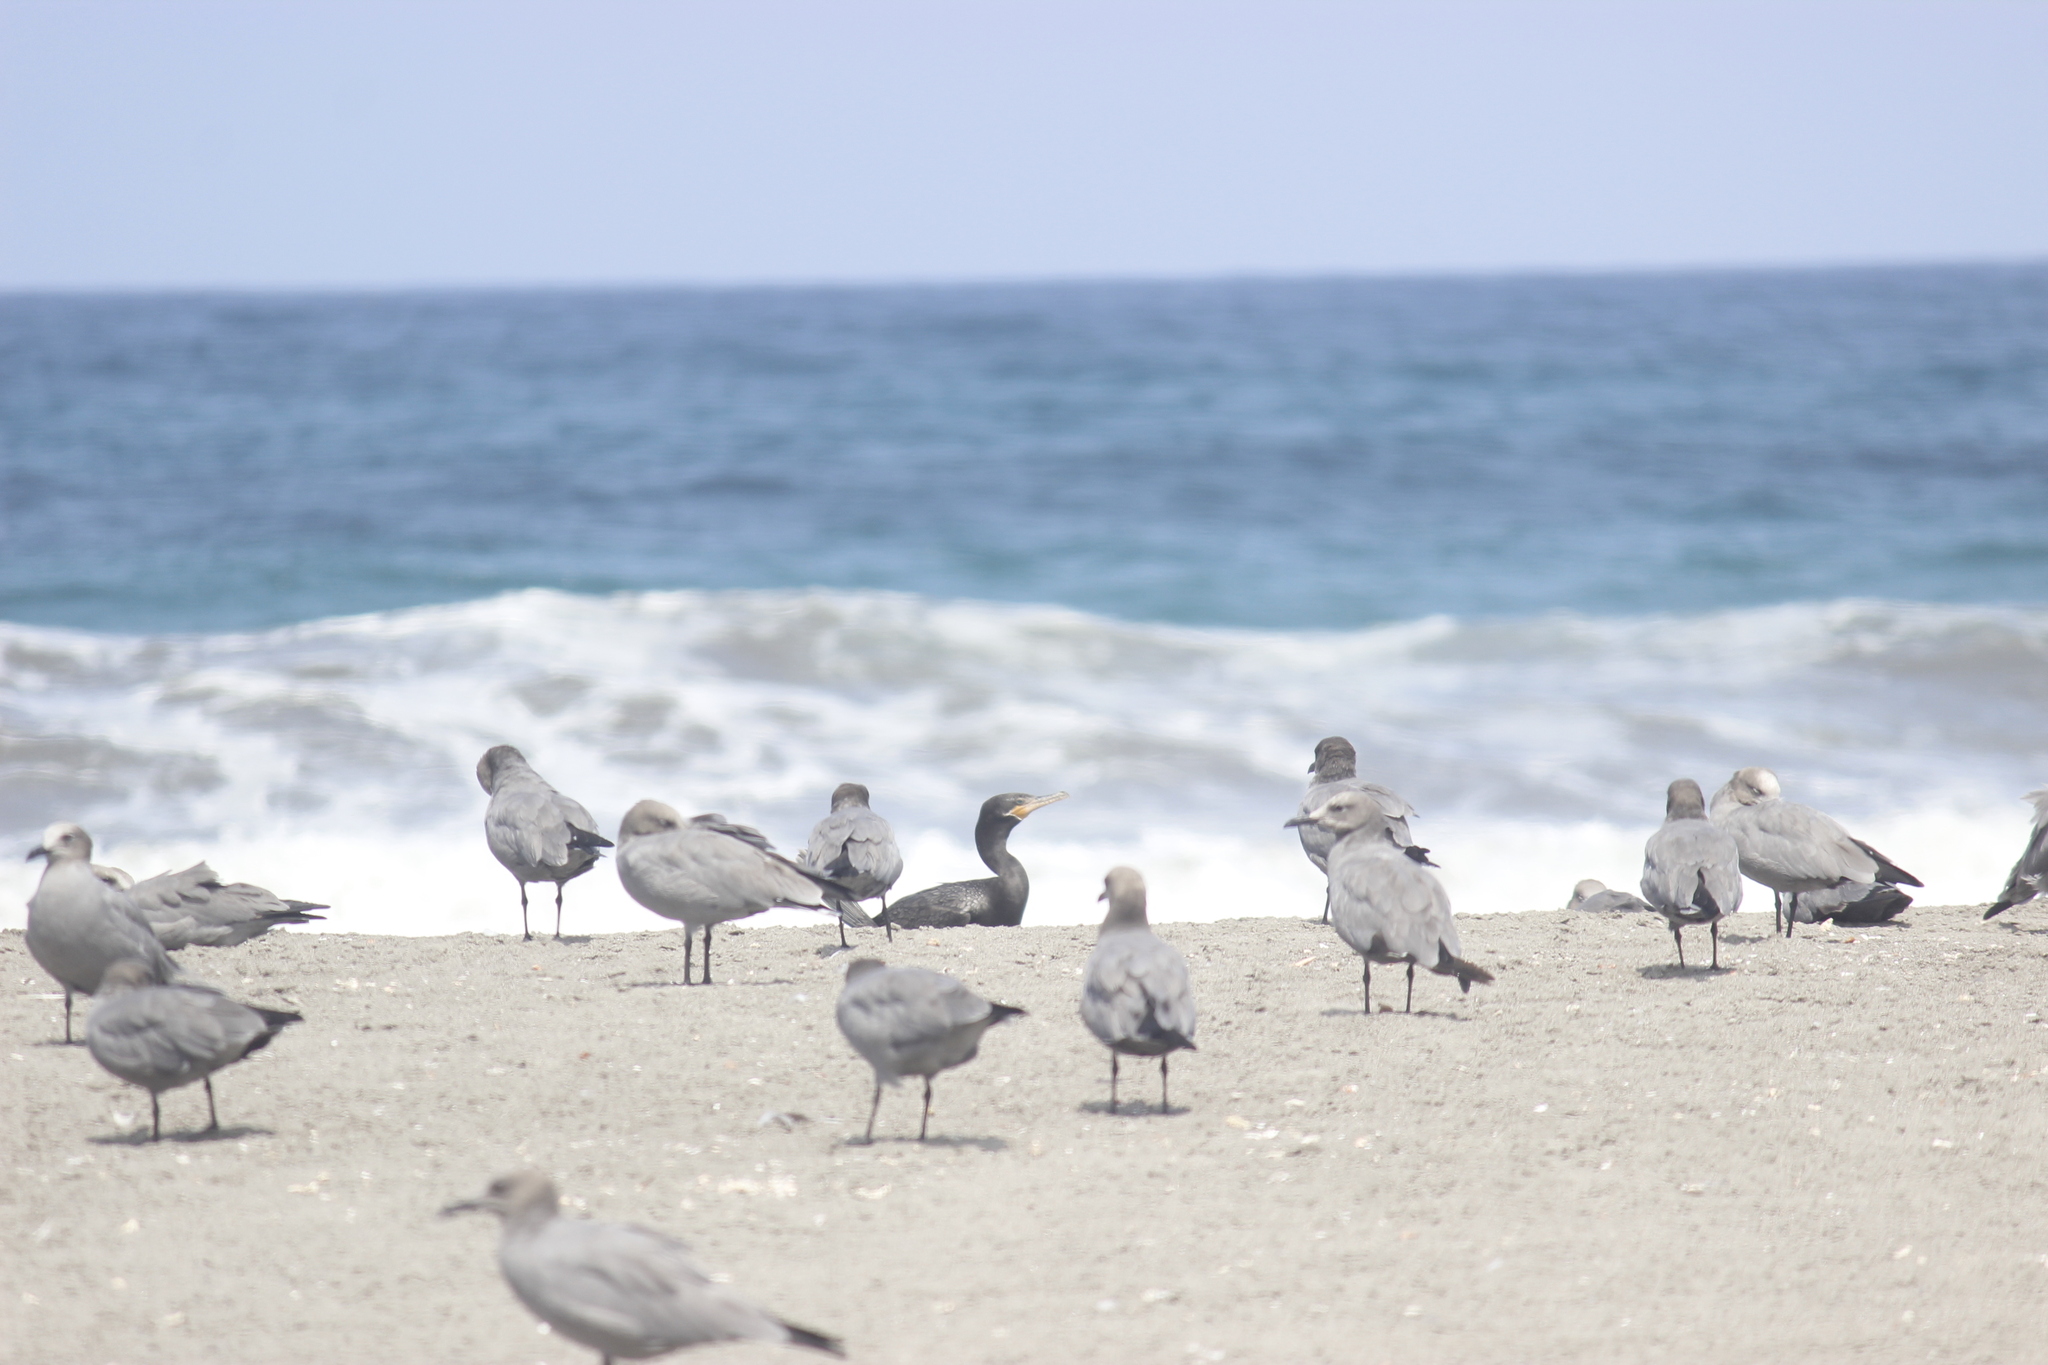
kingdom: Animalia
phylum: Chordata
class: Aves
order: Suliformes
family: Phalacrocoracidae
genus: Phalacrocorax
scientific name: Phalacrocorax brasilianus
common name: Neotropic cormorant
